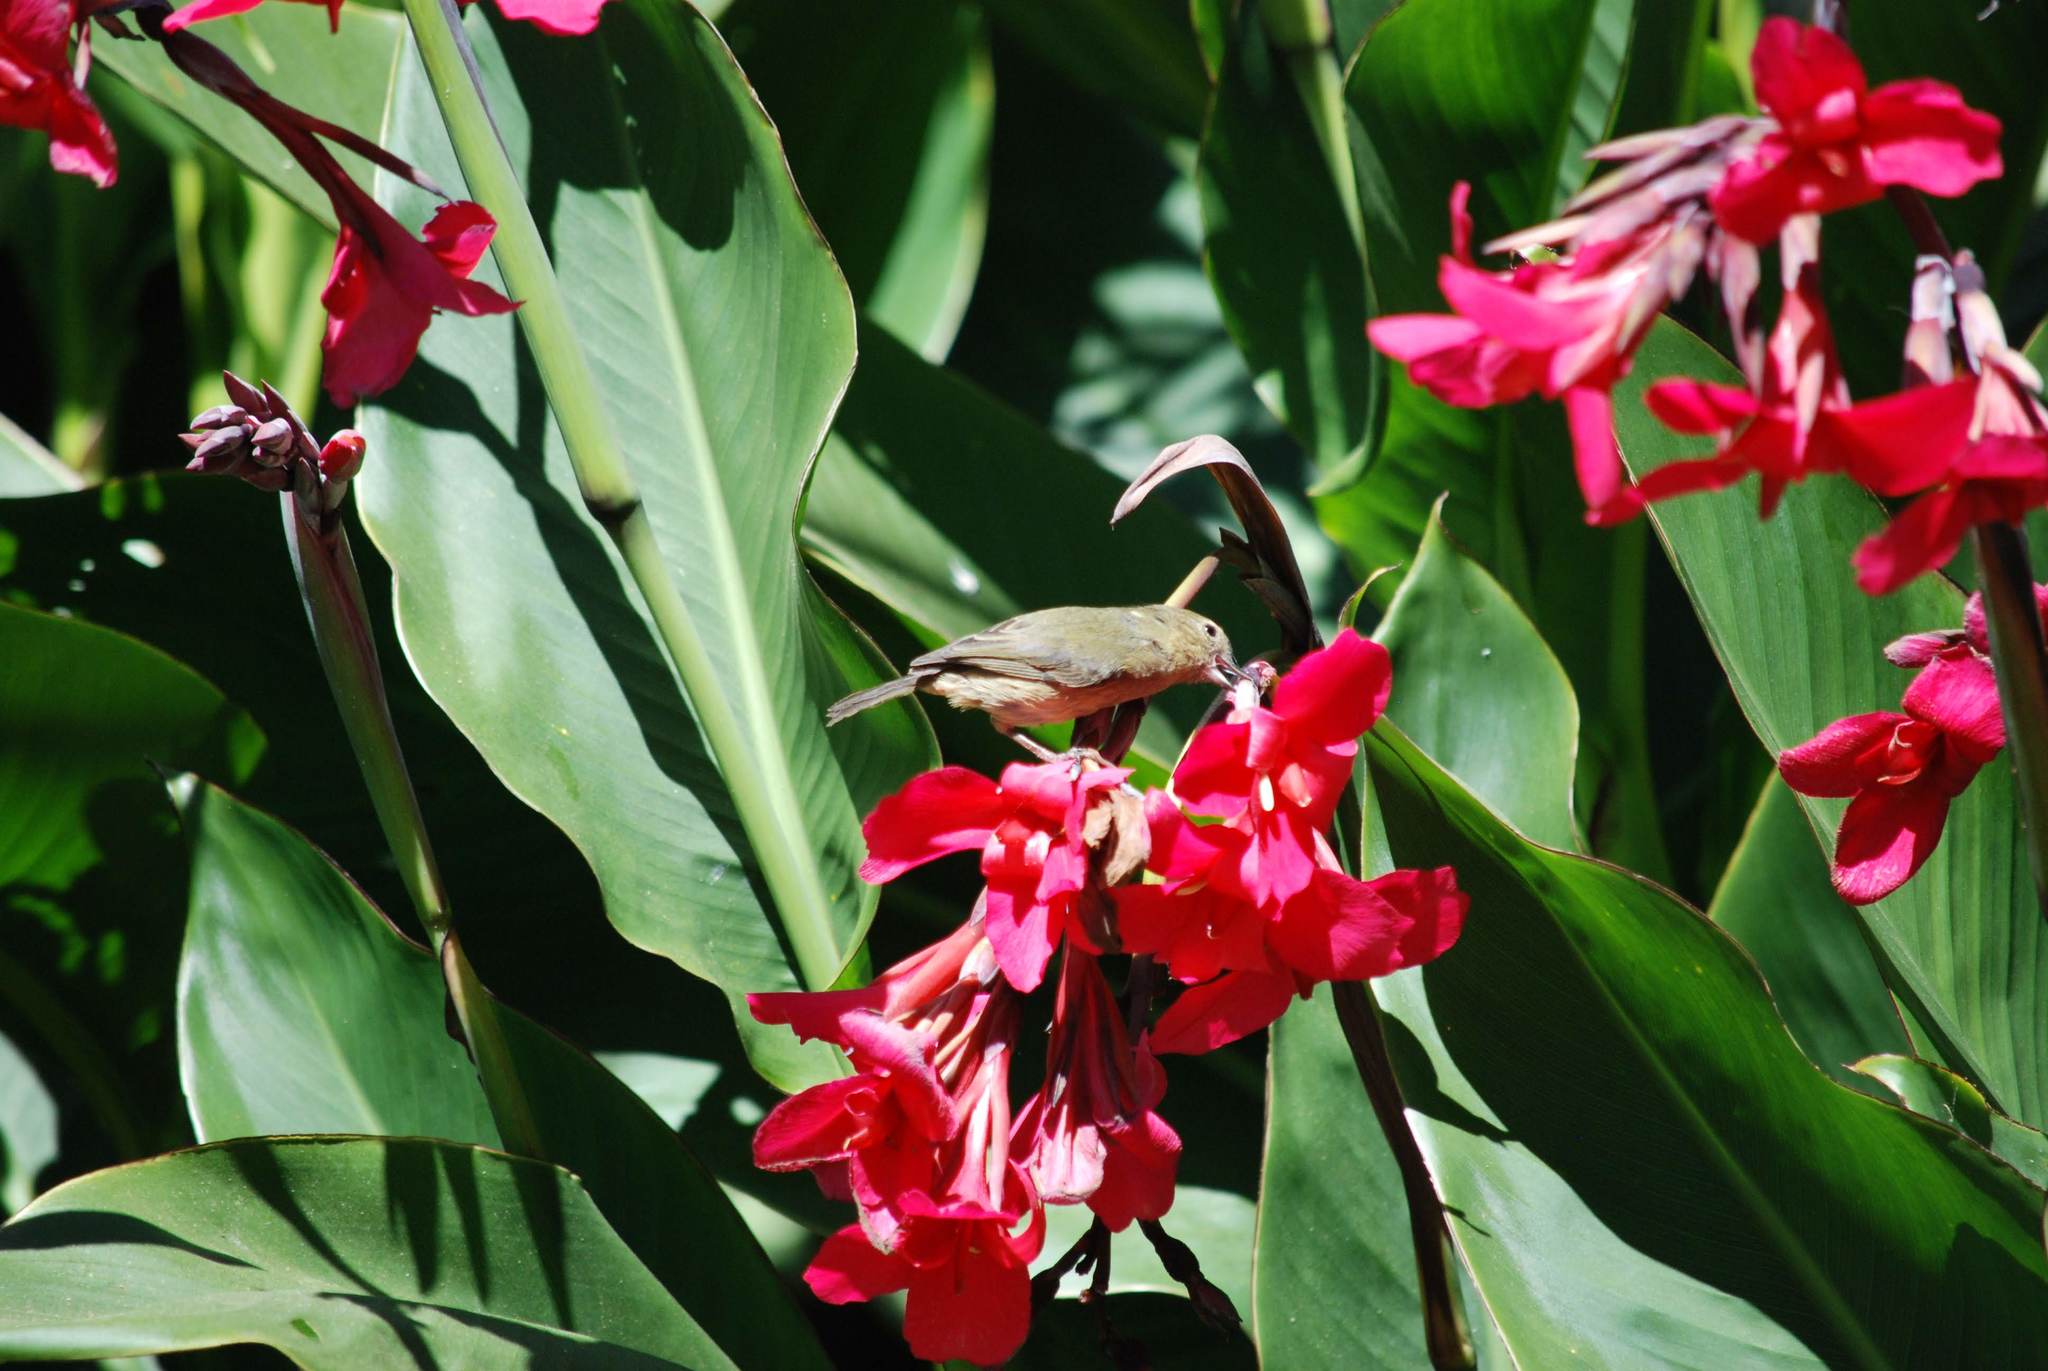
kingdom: Animalia
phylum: Chordata
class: Aves
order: Passeriformes
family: Thraupidae
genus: Diglossa
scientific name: Diglossa plumbea
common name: Slaty flowerpiercer
